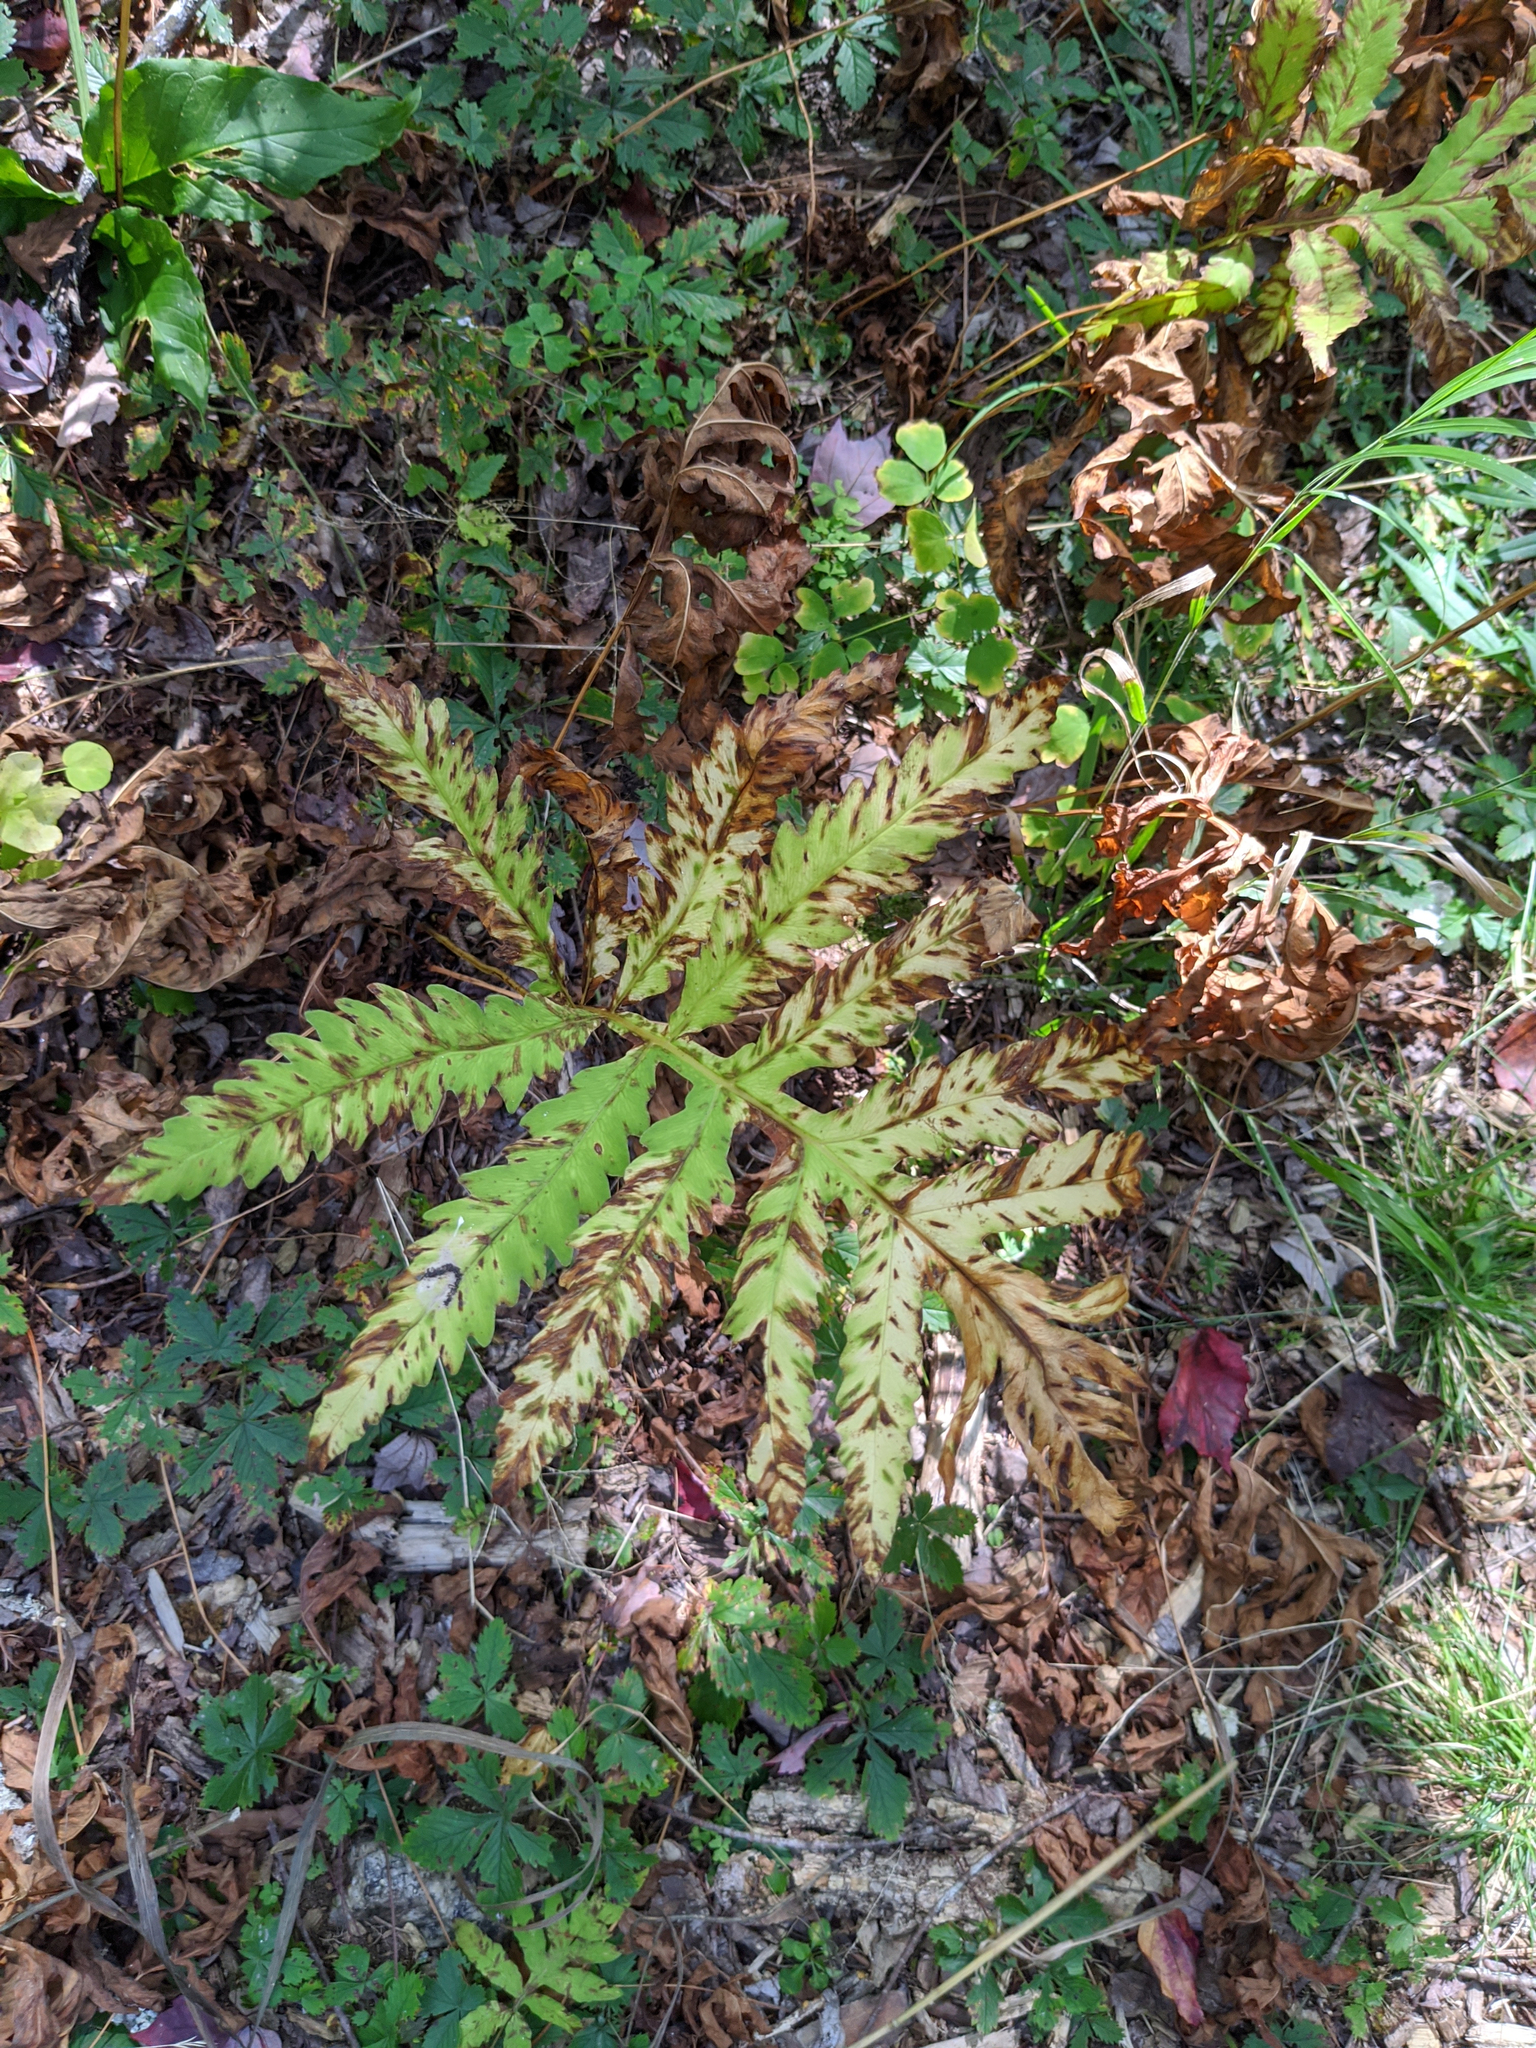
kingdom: Plantae
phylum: Tracheophyta
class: Polypodiopsida
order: Polypodiales
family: Onocleaceae
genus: Onoclea
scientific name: Onoclea sensibilis
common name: Sensitive fern
